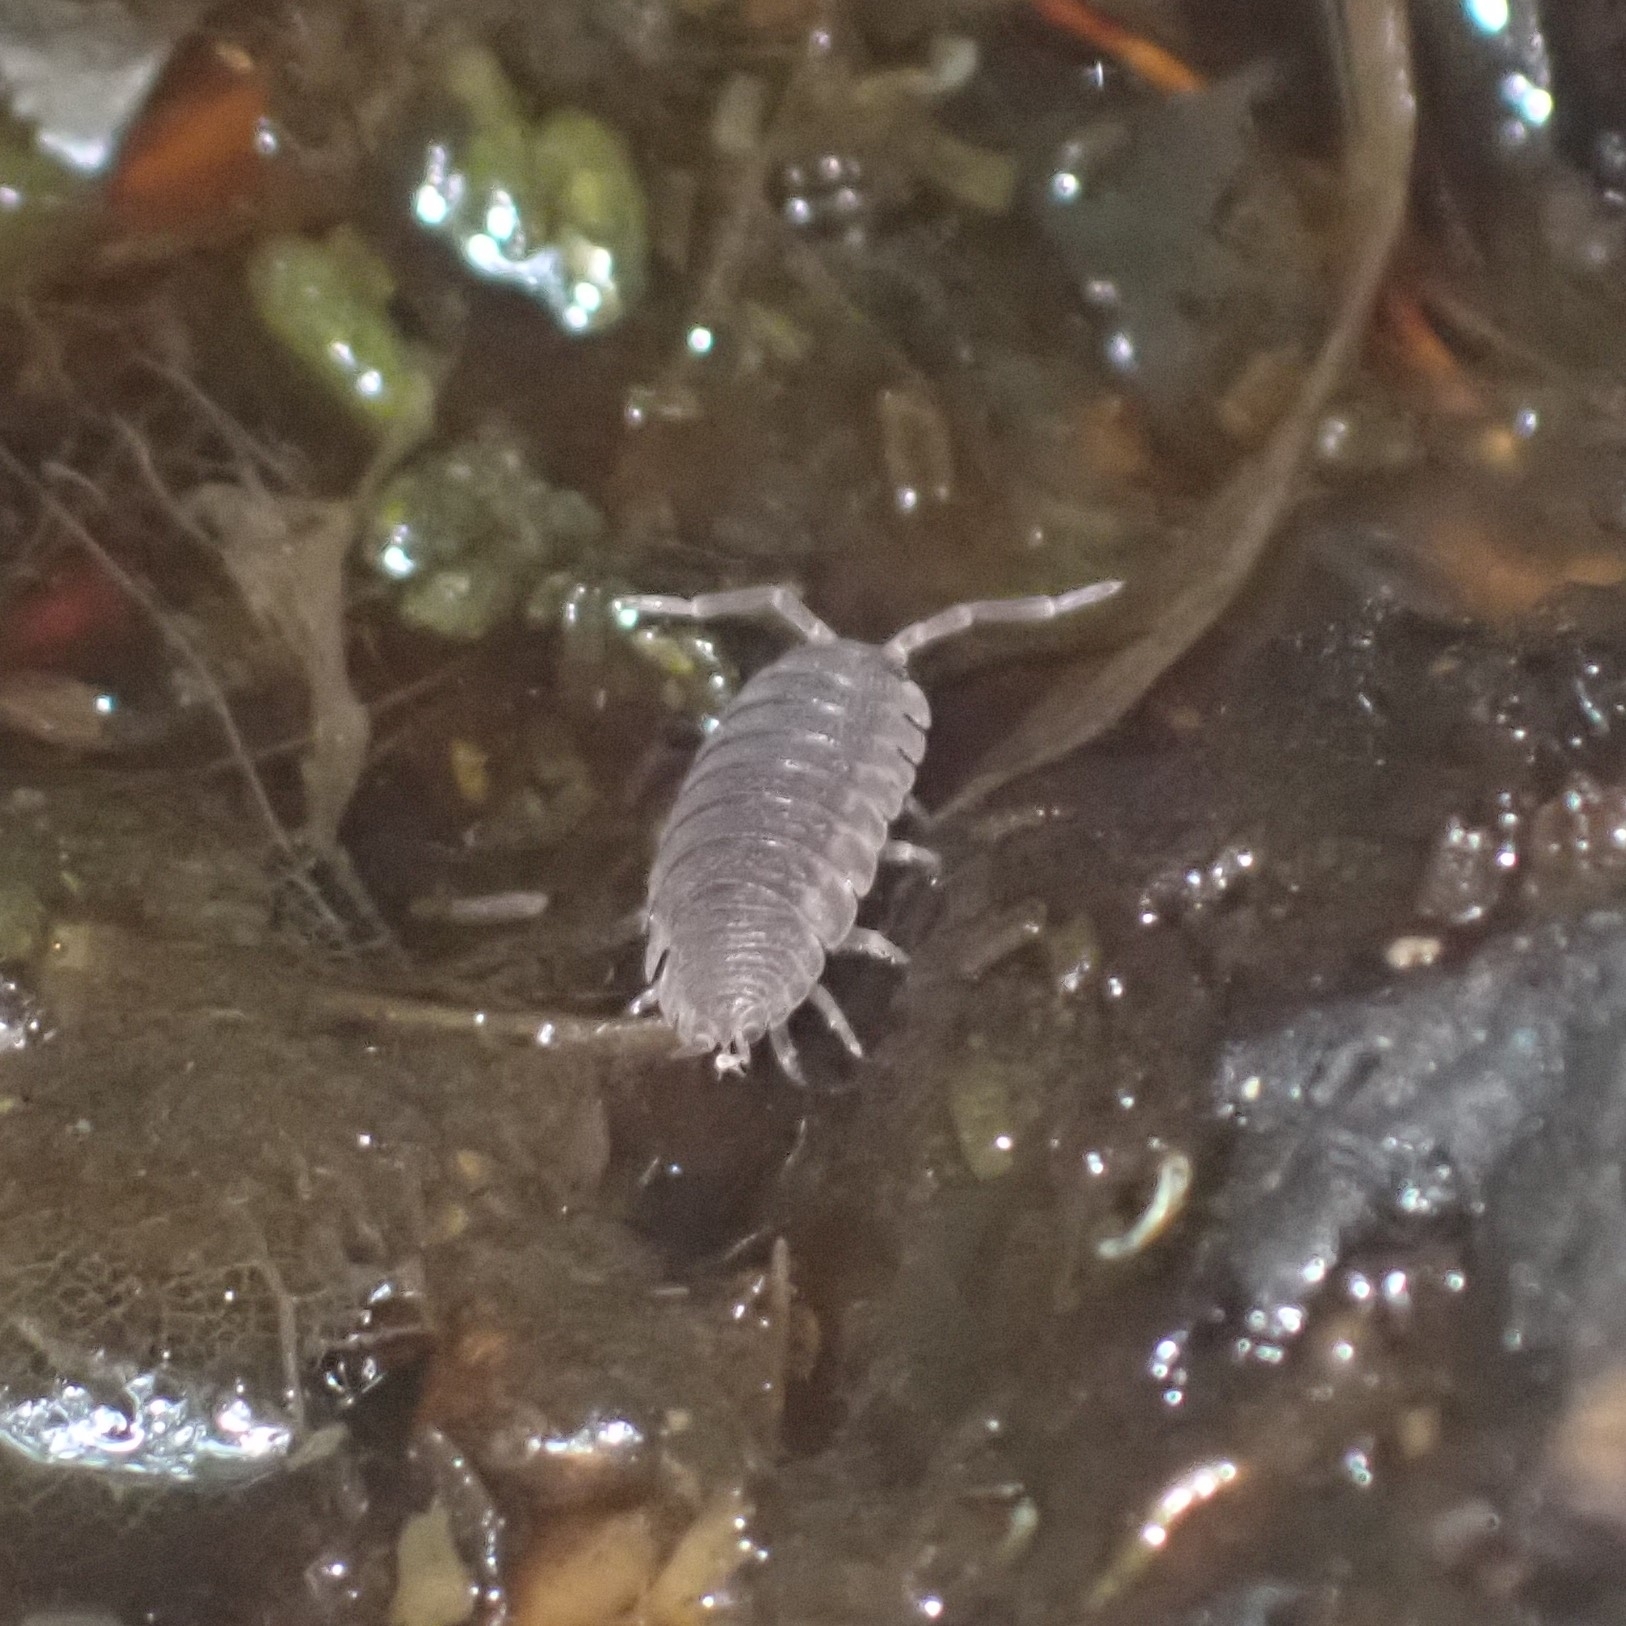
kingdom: Animalia
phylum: Arthropoda
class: Malacostraca
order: Isopoda
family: Porcellionidae
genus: Porcellio
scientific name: Porcellio scaber
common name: Common rough woodlouse
